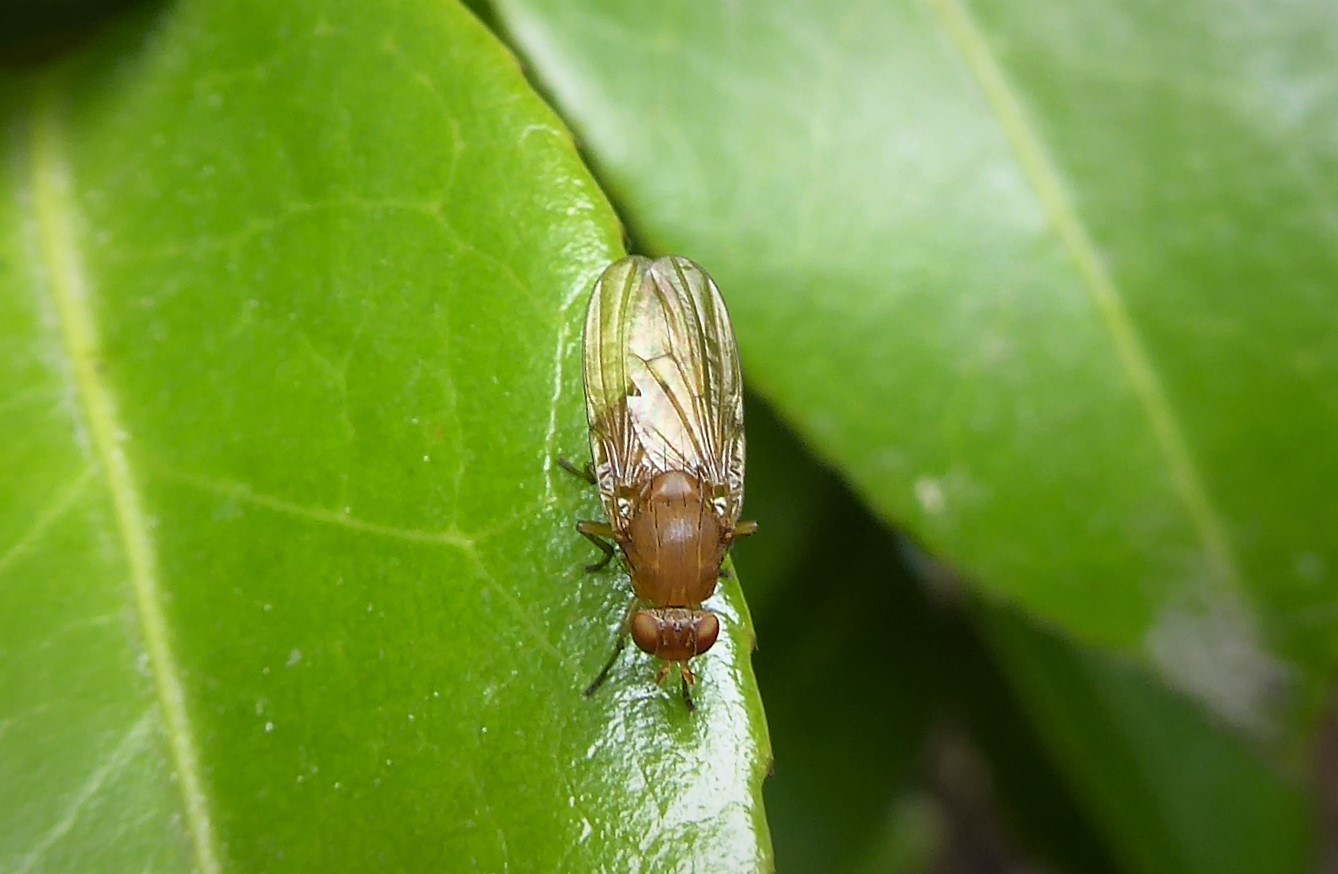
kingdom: Animalia
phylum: Arthropoda
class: Insecta
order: Diptera
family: Lauxaniidae
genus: Sapromyza
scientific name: Sapromyza simillima
